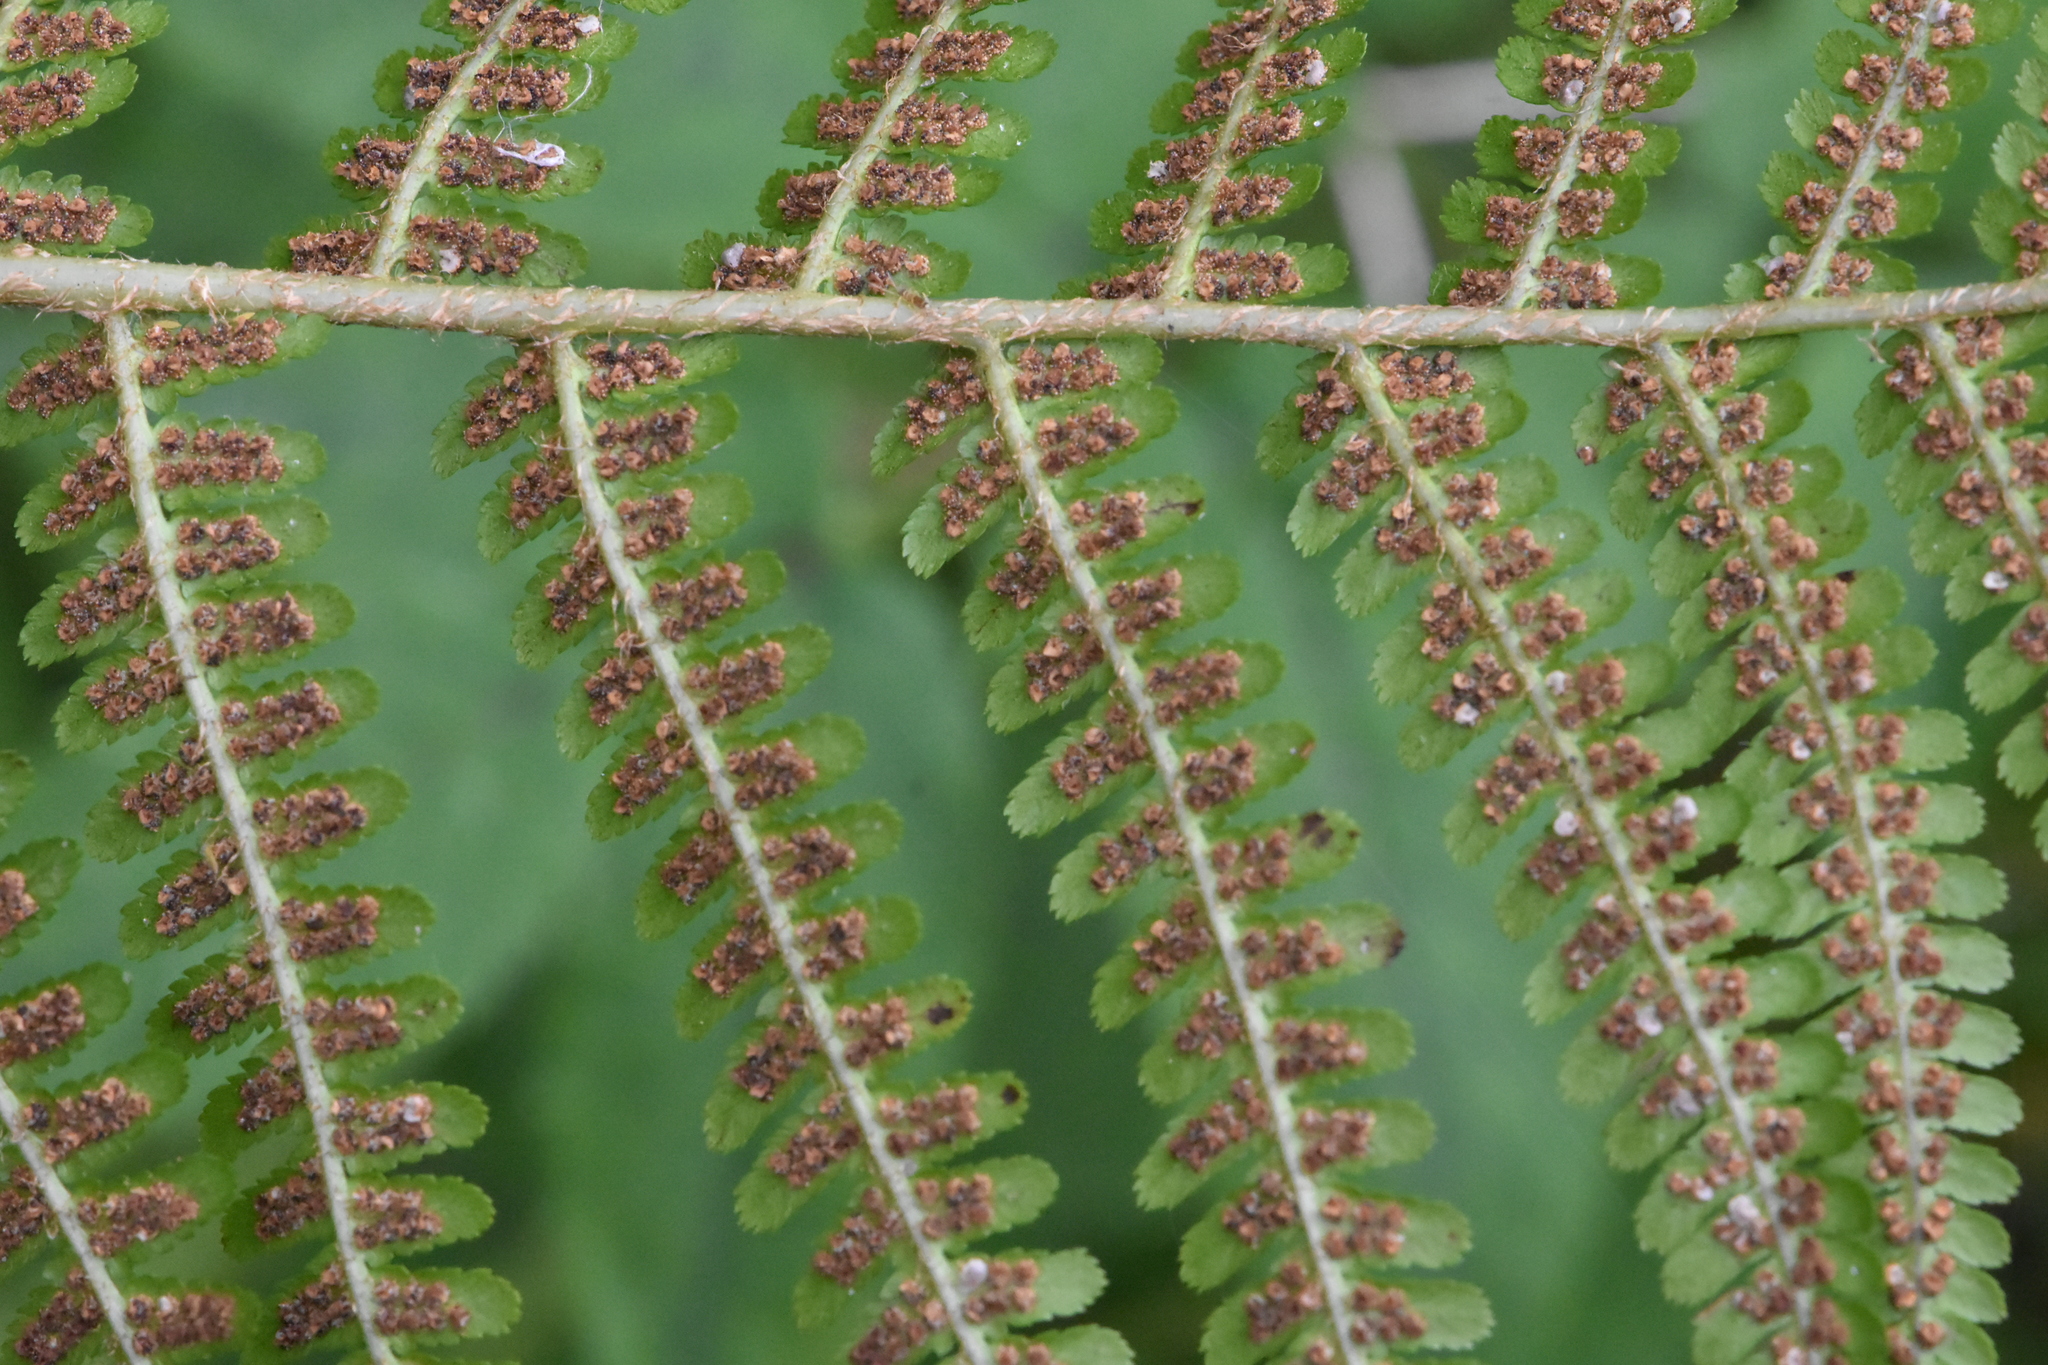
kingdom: Plantae
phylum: Tracheophyta
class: Polypodiopsida
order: Polypodiales
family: Dryopteridaceae
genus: Dryopteris
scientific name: Dryopteris filix-mas
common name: Male fern
